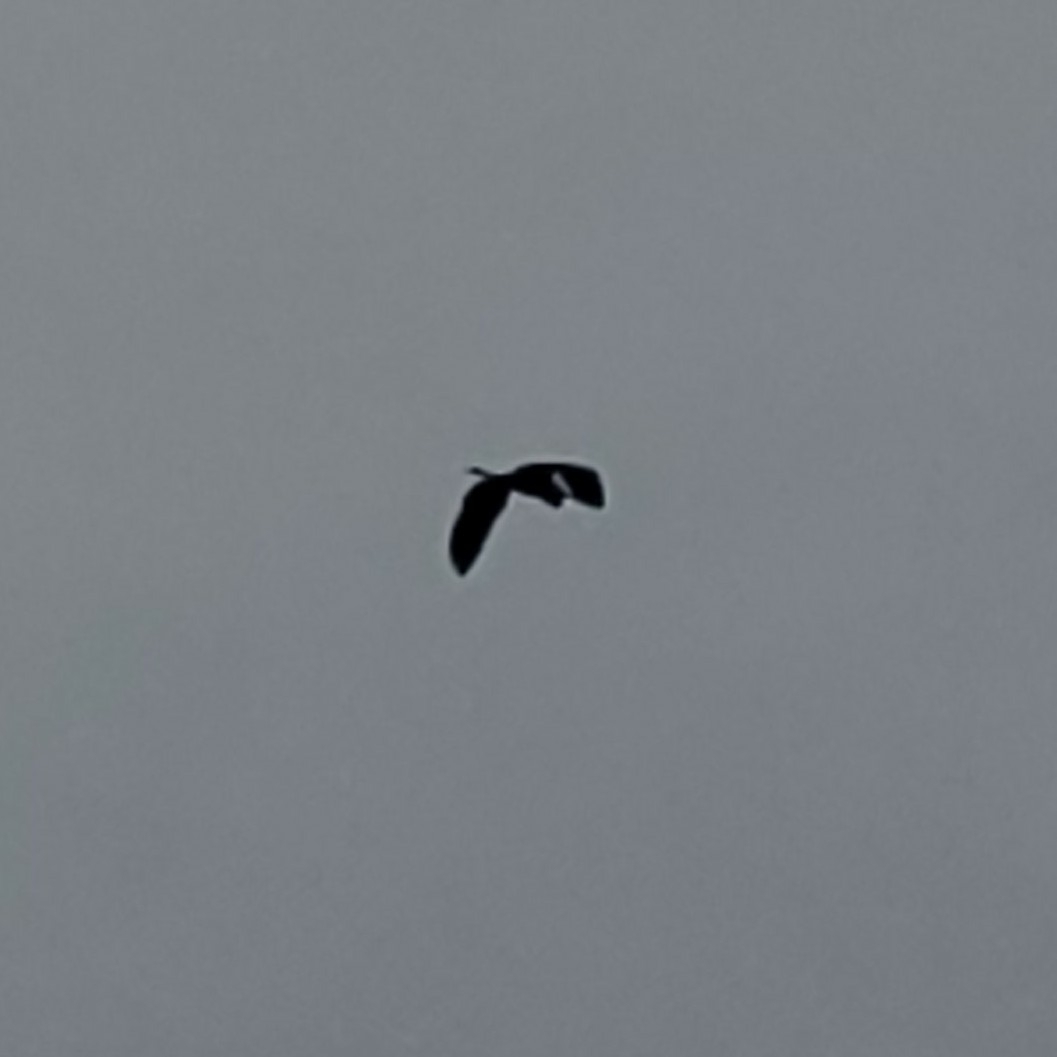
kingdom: Animalia
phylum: Chordata
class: Aves
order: Pelecaniformes
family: Ardeidae
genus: Ardea
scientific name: Ardea herodias
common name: Great blue heron
